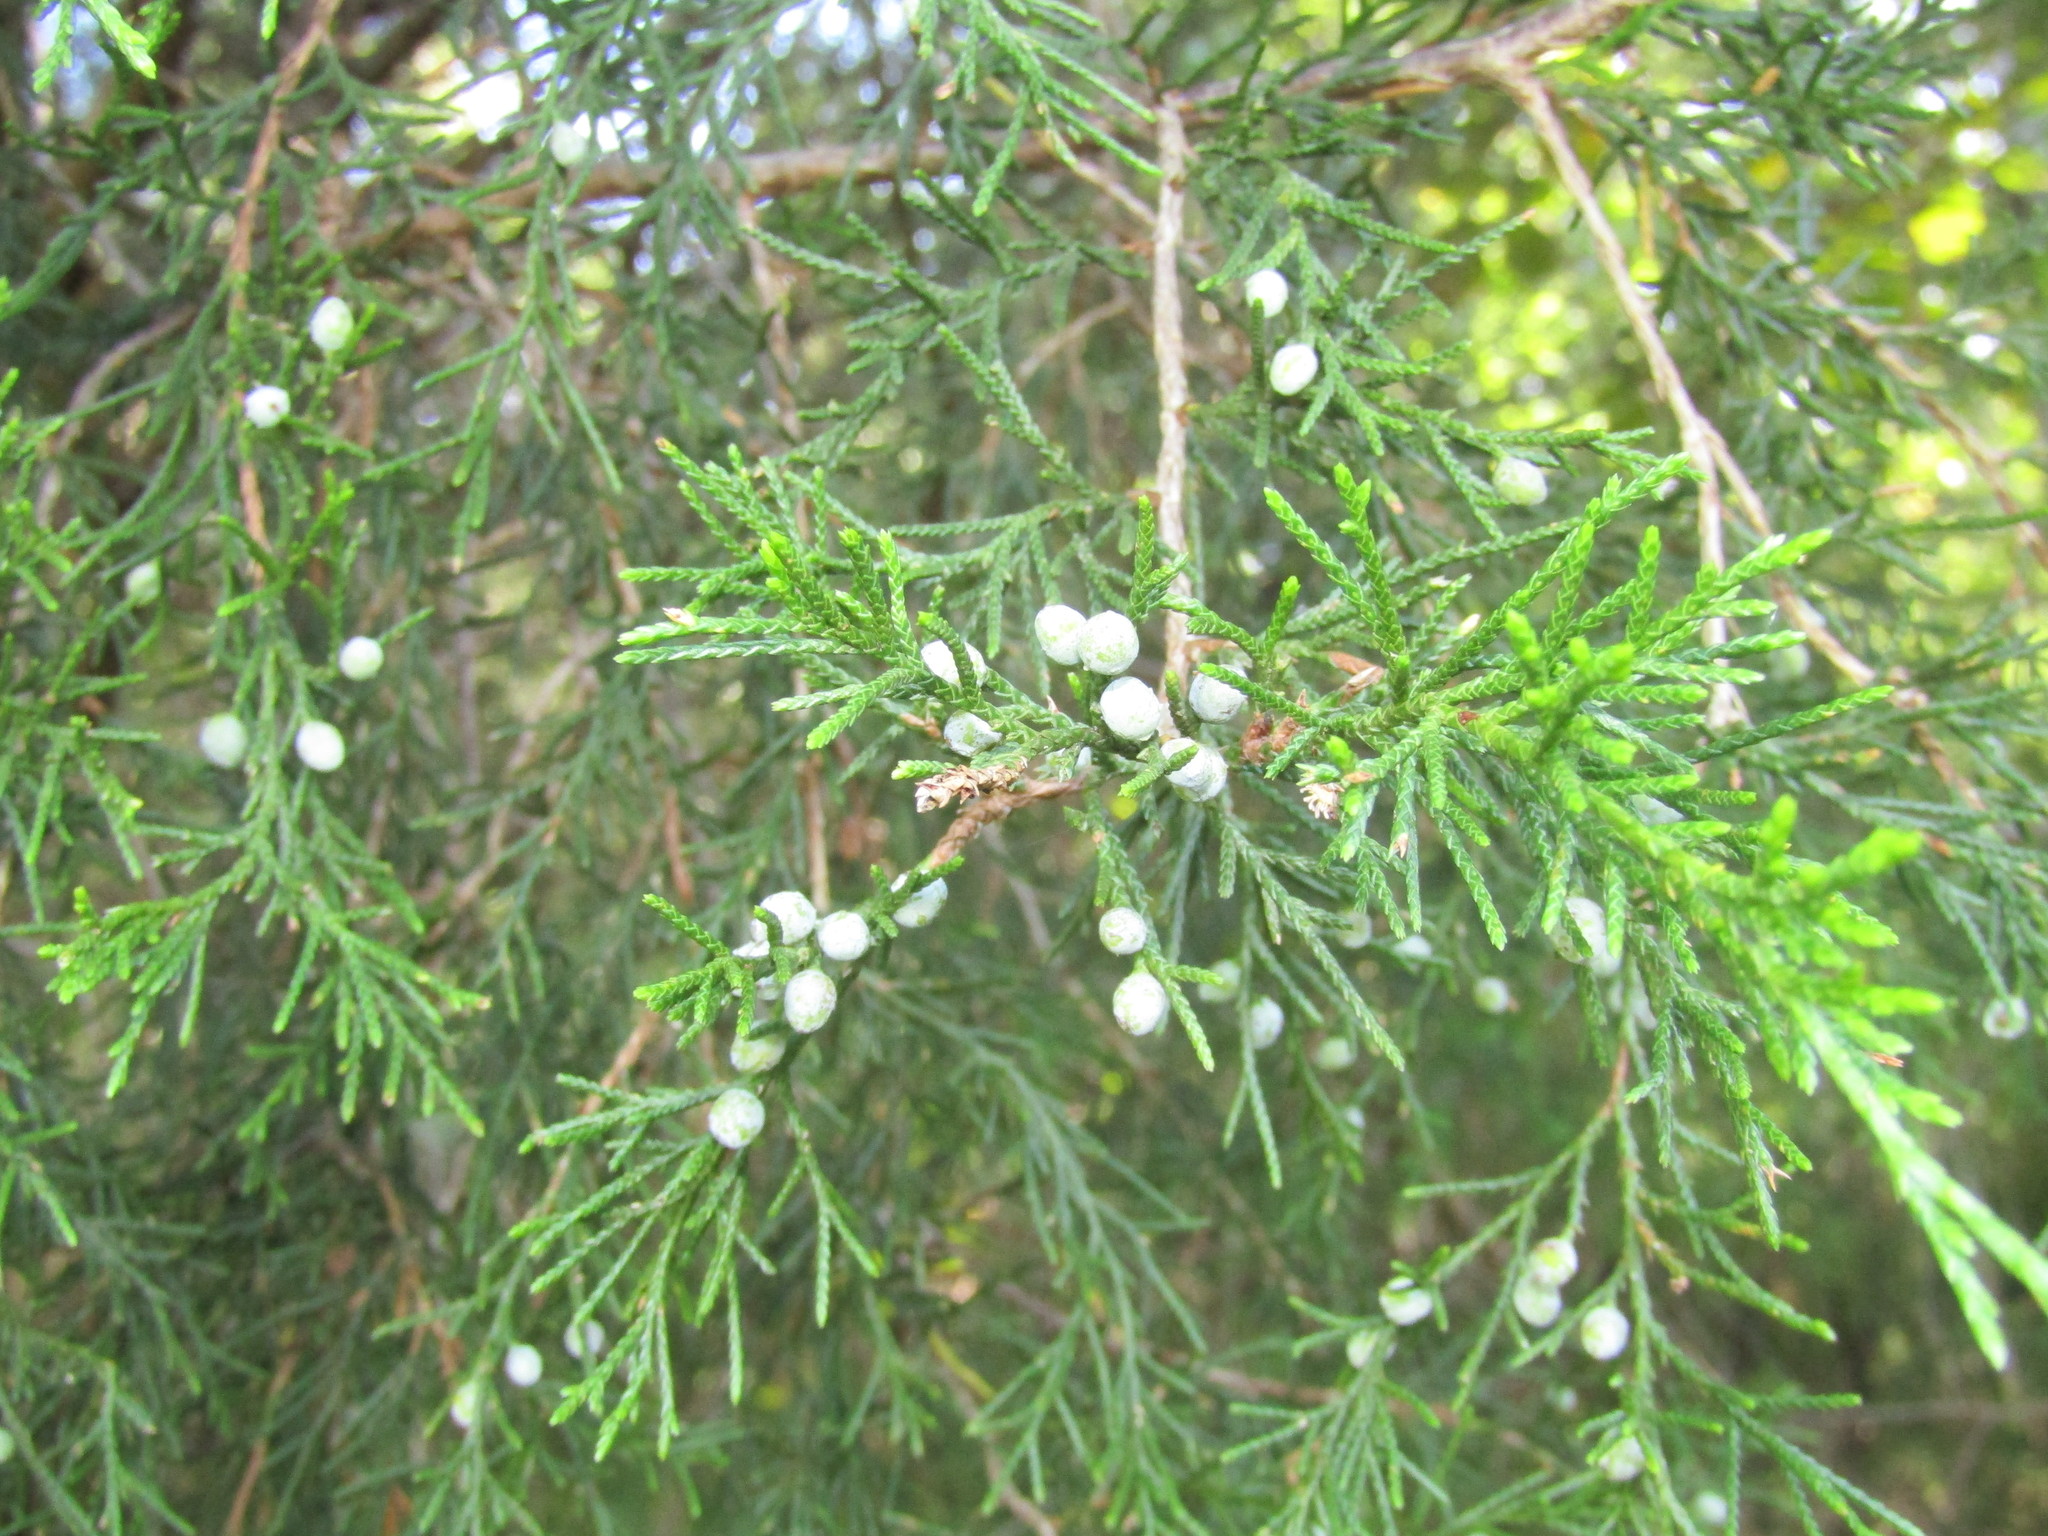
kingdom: Plantae
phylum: Tracheophyta
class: Pinopsida
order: Pinales
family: Cupressaceae
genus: Juniperus
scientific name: Juniperus virginiana
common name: Red juniper
